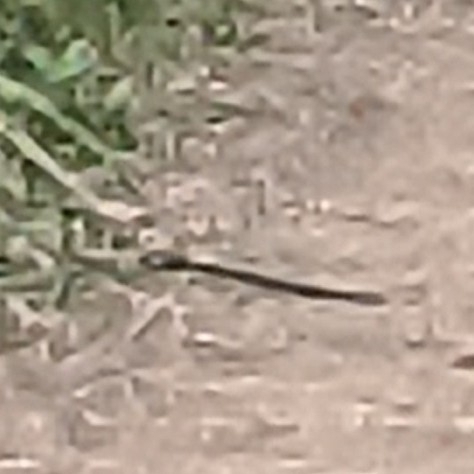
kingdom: Animalia
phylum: Chordata
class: Aves
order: Passeriformes
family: Viduidae
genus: Vidua
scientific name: Vidua macroura
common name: Pin-tailed whydah
